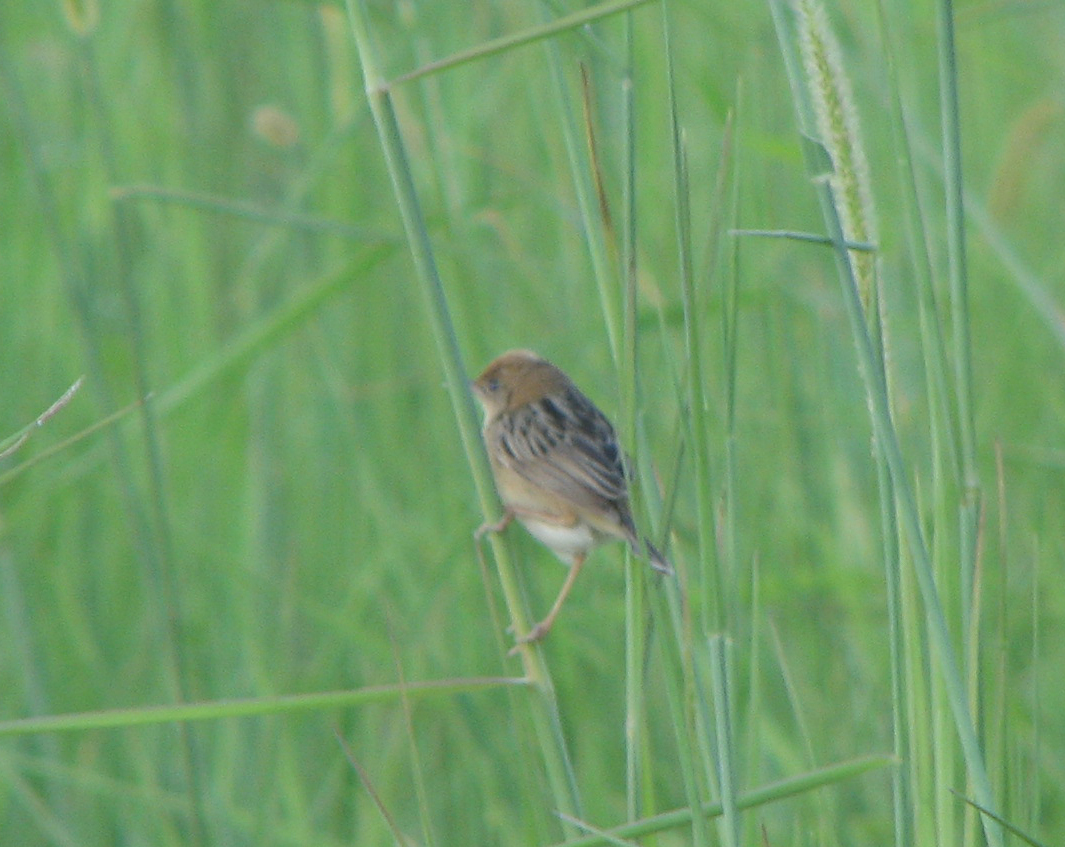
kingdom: Animalia
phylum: Chordata
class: Aves
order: Passeriformes
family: Cisticolidae
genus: Cisticola
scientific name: Cisticola exilis
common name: Golden-headed cisticola
